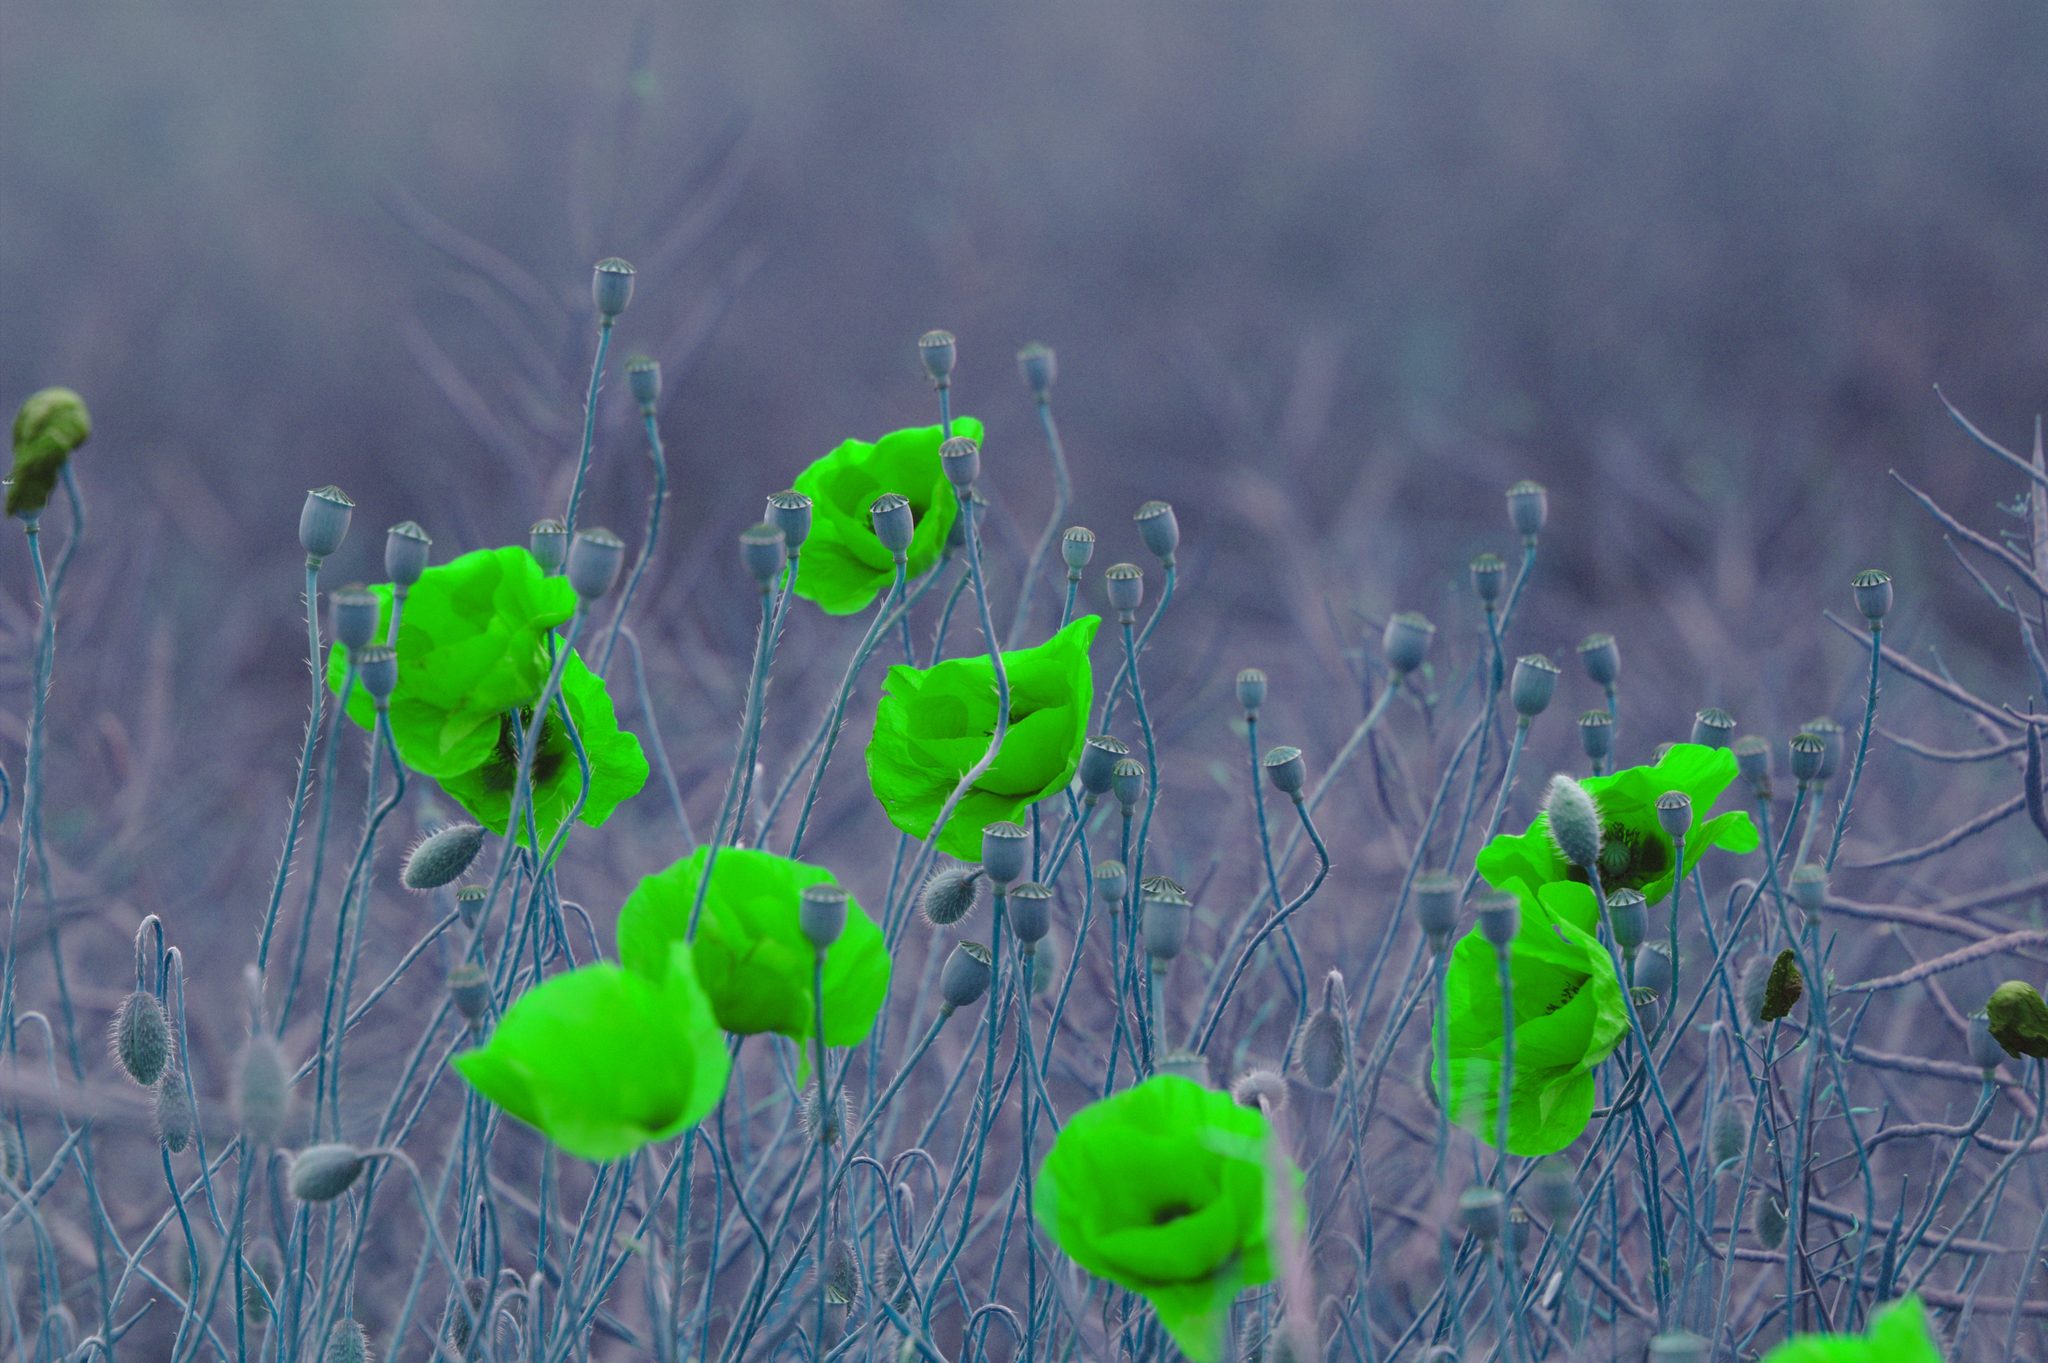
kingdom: Plantae
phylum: Tracheophyta
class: Magnoliopsida
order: Ranunculales
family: Papaveraceae
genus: Papaver
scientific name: Papaver rhoeas
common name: Corn poppy
